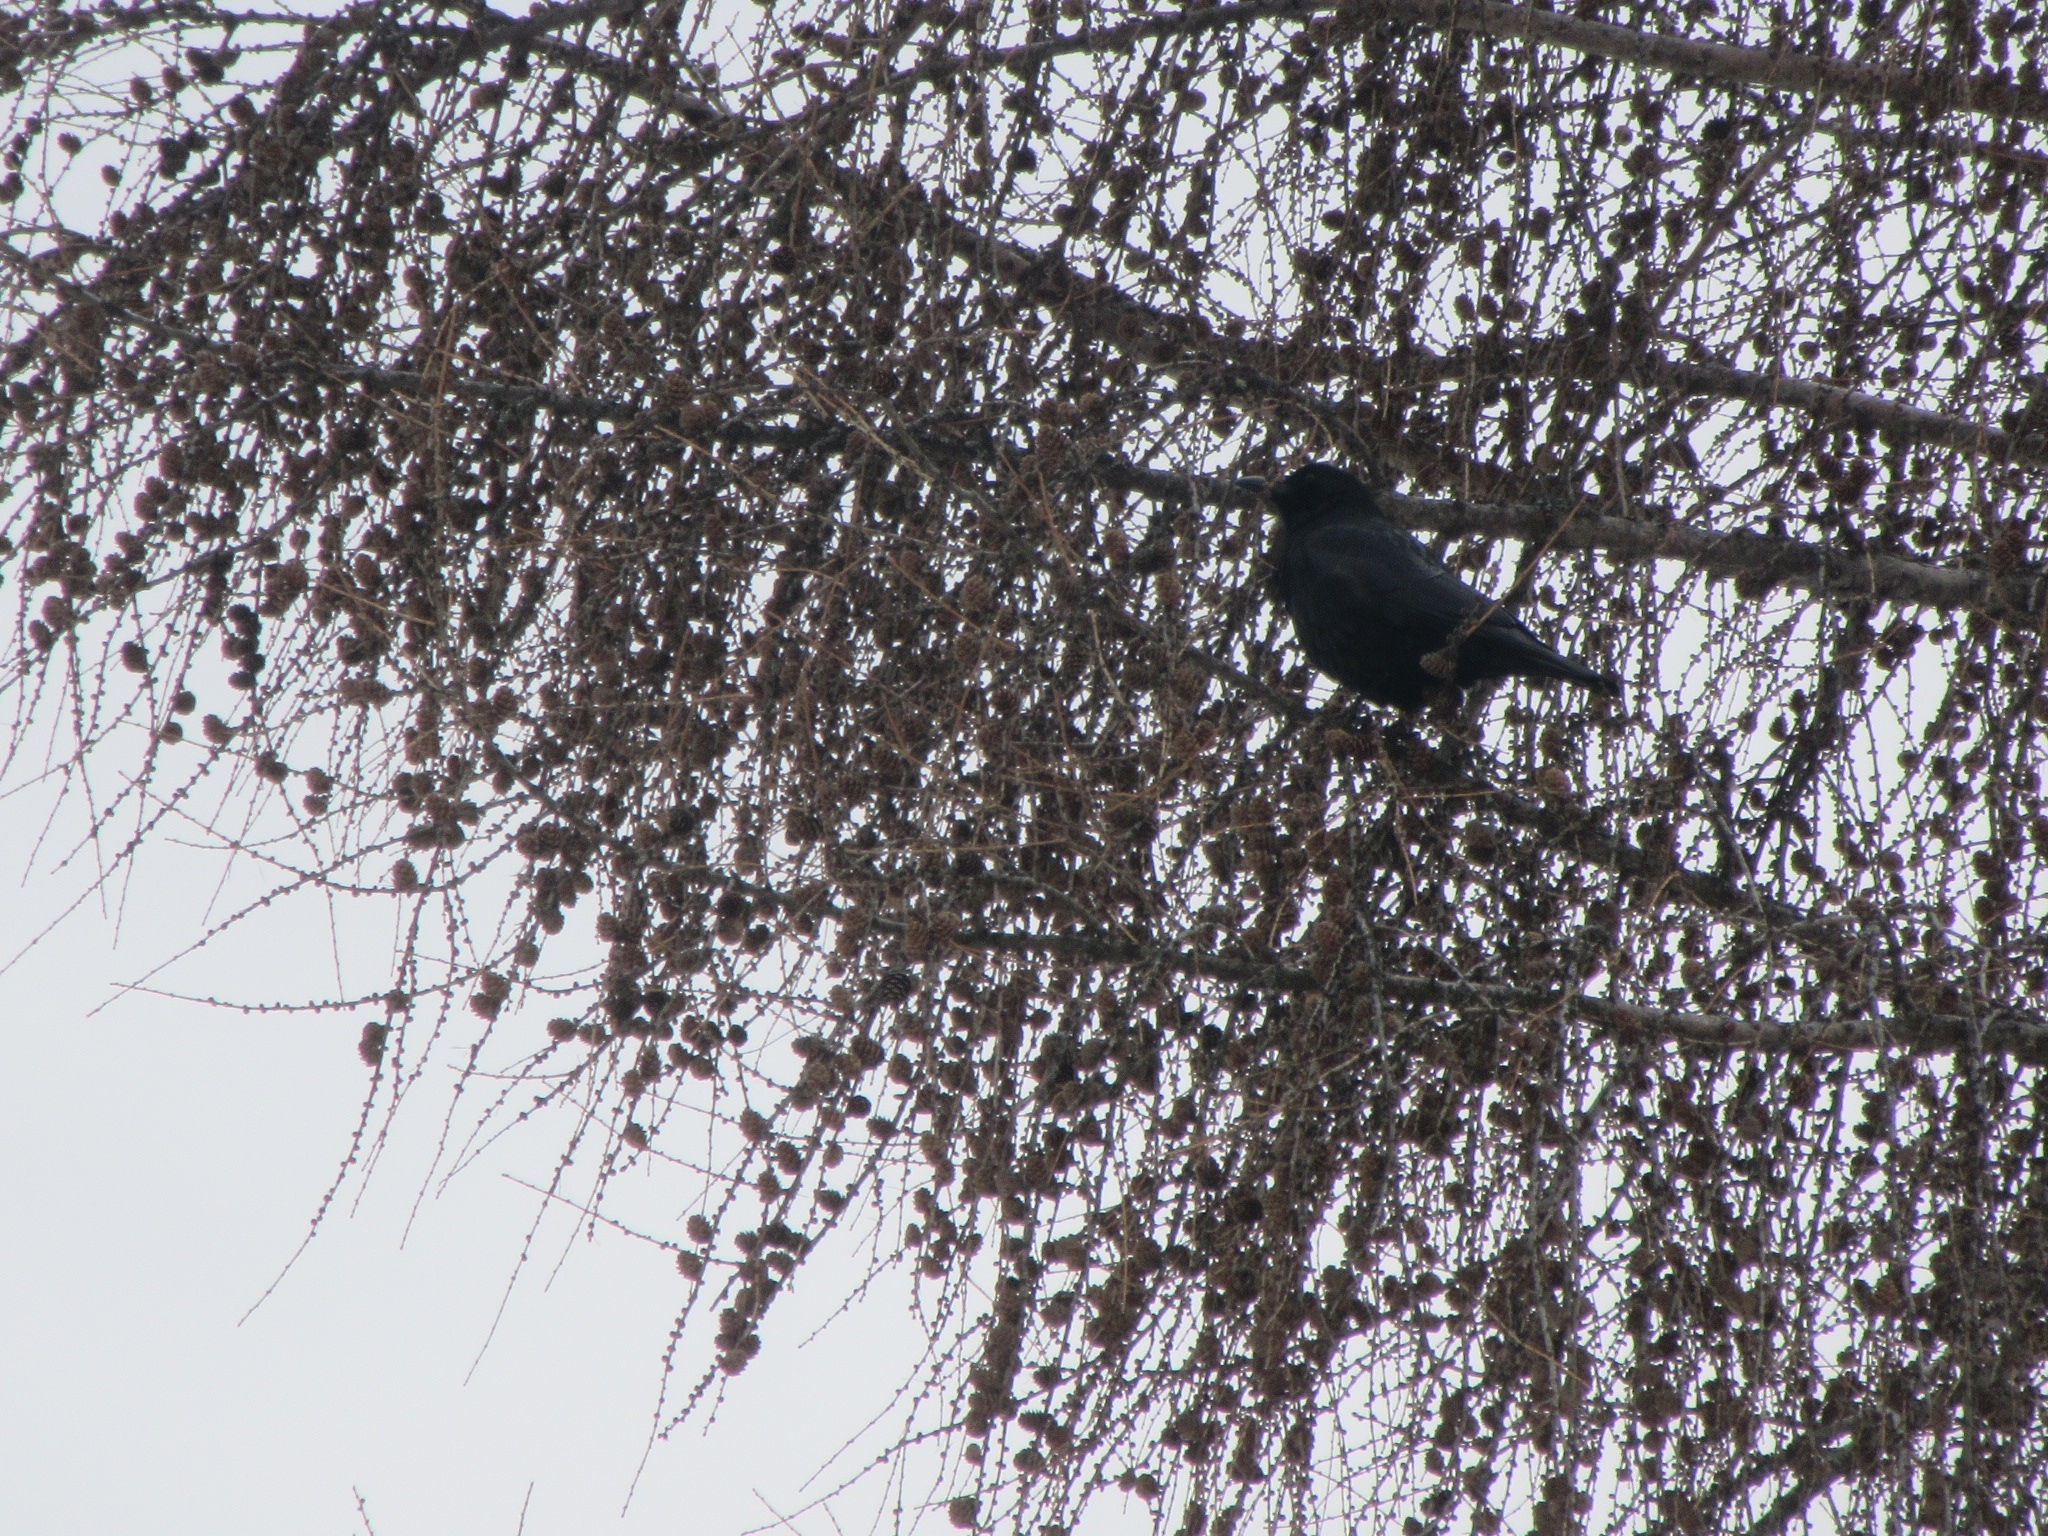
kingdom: Animalia
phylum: Chordata
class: Aves
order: Passeriformes
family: Corvidae
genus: Corvus
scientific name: Corvus corone
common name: Carrion crow
